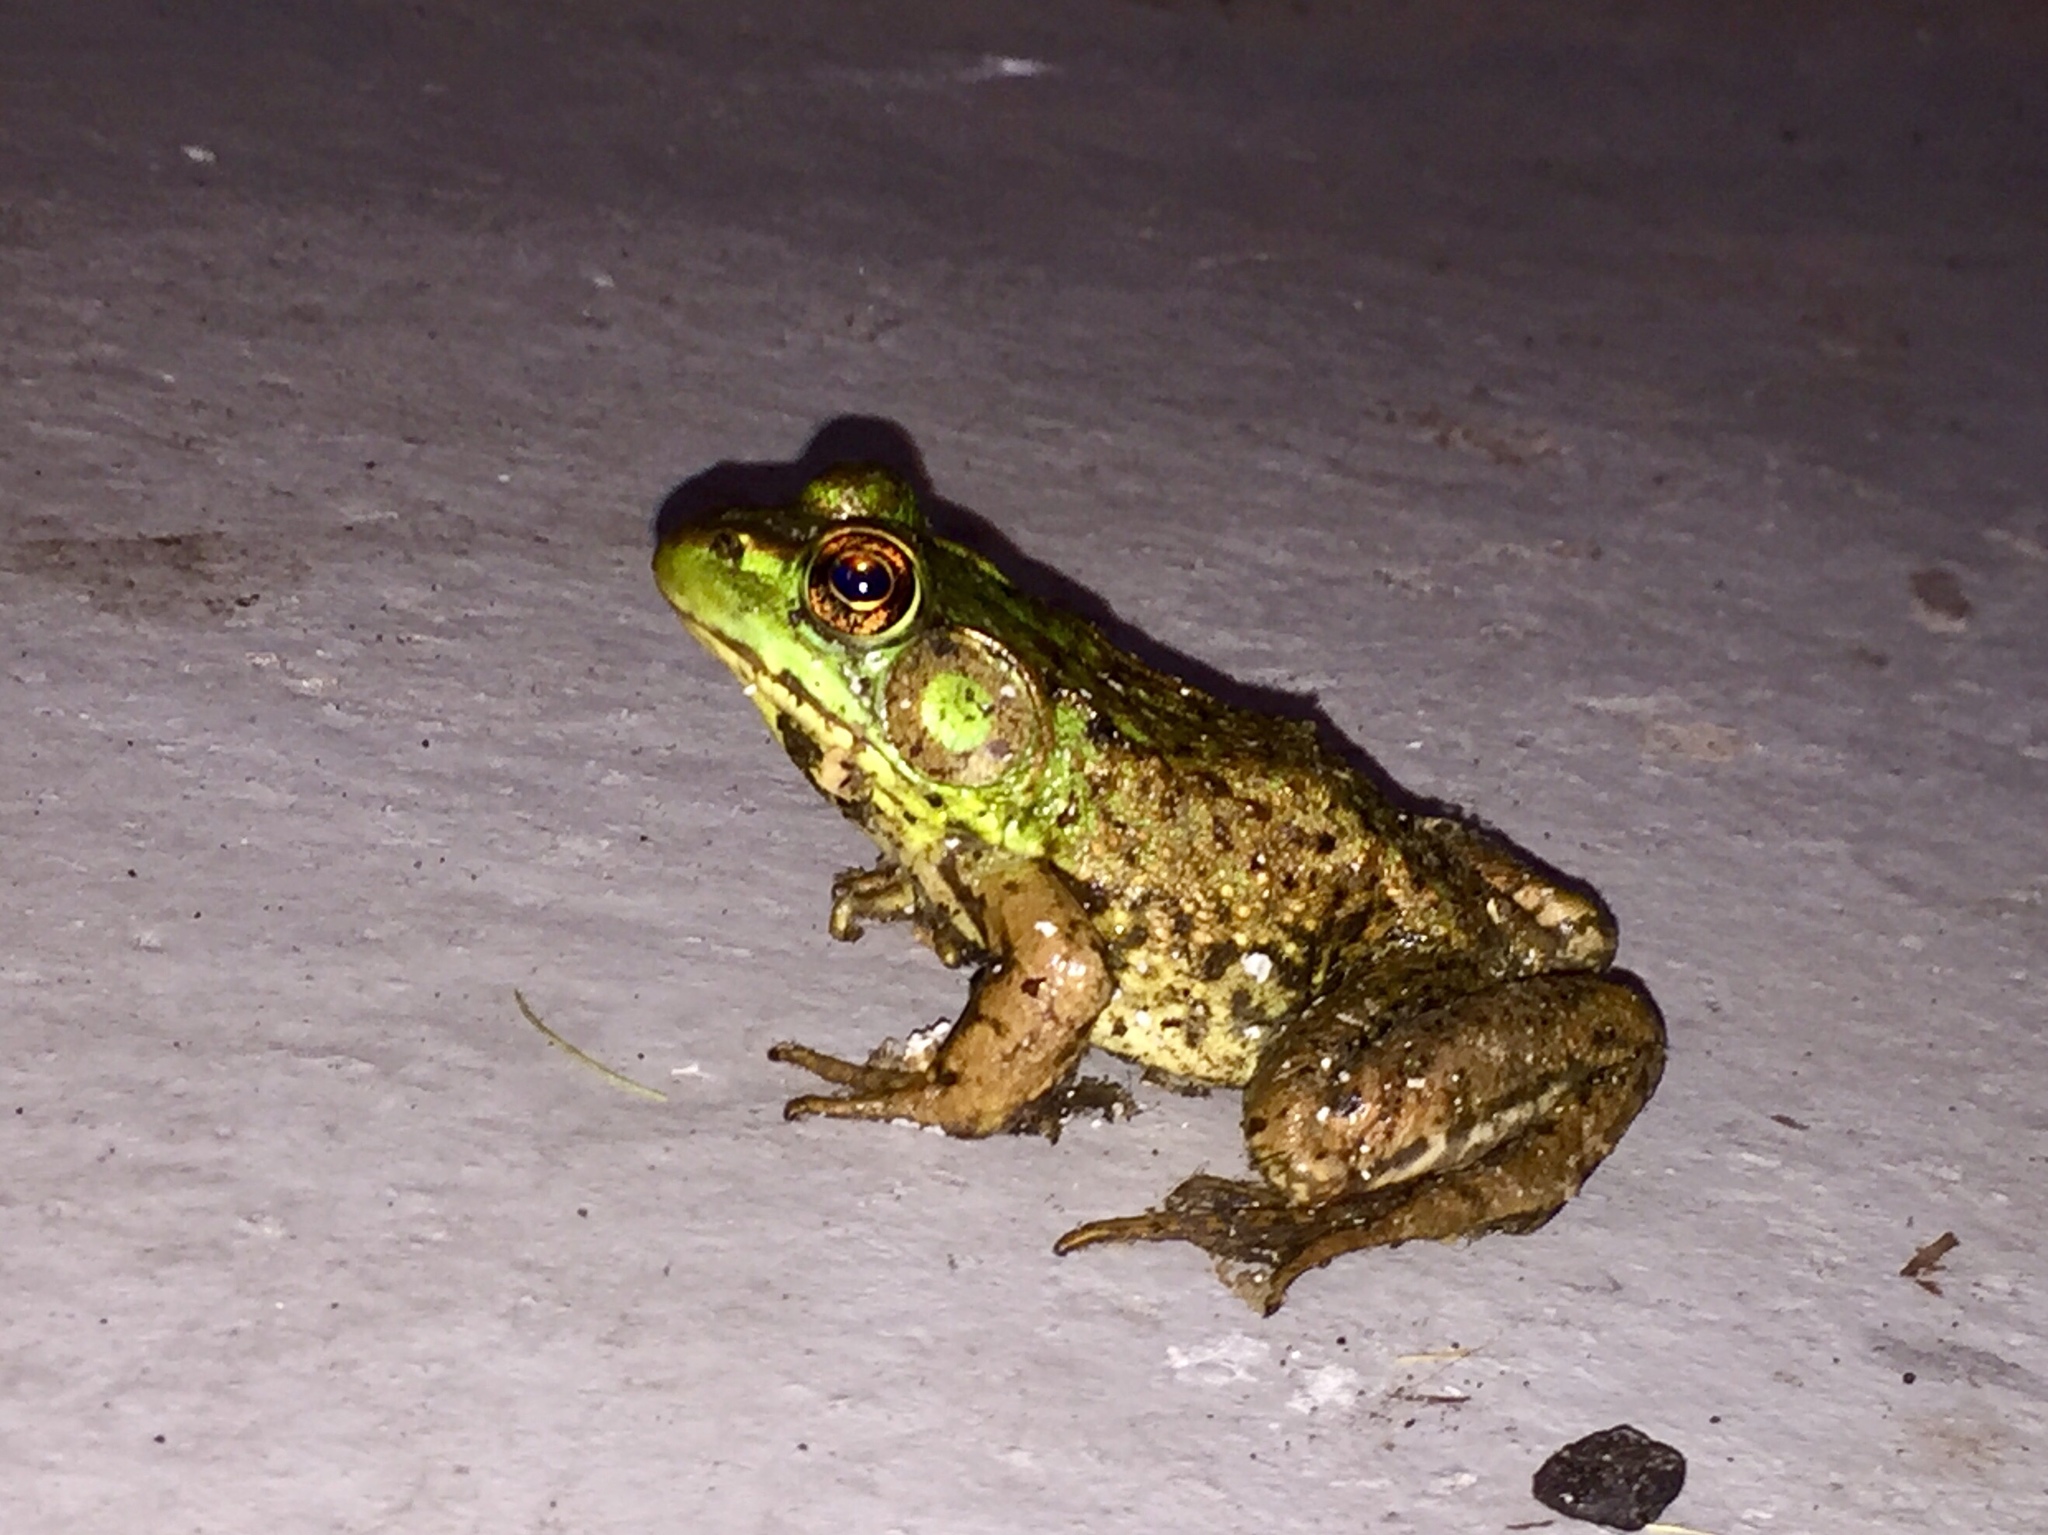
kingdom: Animalia
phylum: Chordata
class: Amphibia
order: Anura
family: Ranidae
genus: Lithobates
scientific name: Lithobates clamitans
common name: Green frog
